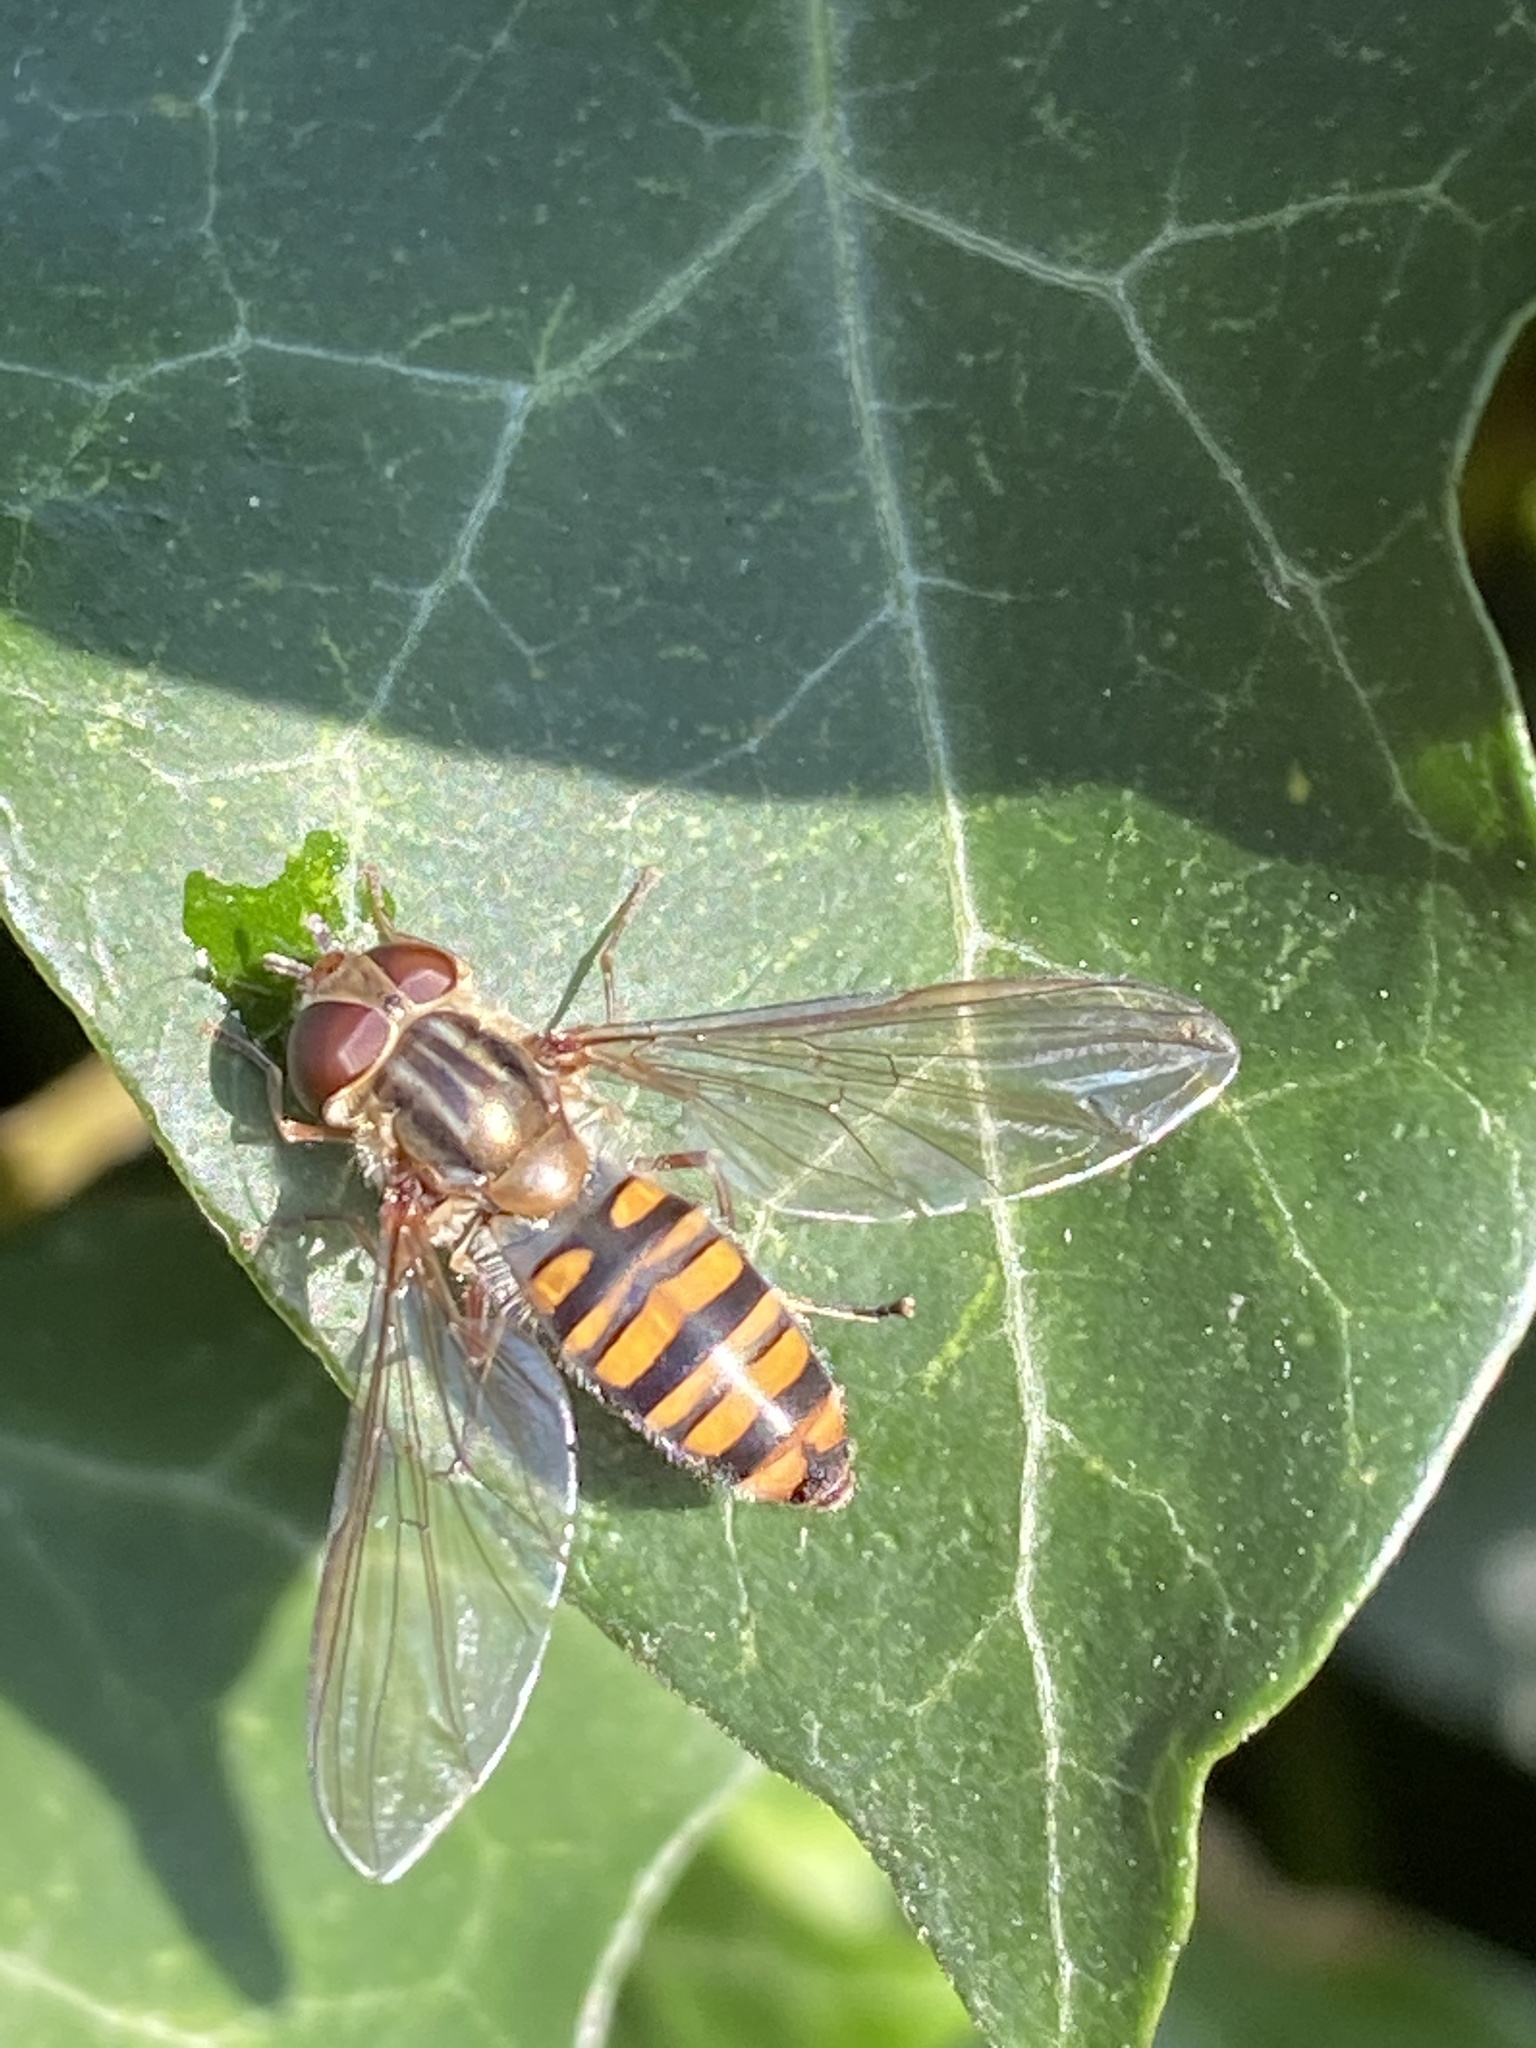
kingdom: Animalia
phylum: Arthropoda
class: Insecta
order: Diptera
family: Syrphidae
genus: Episyrphus
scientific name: Episyrphus balteatus
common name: Marmalade hoverfly
